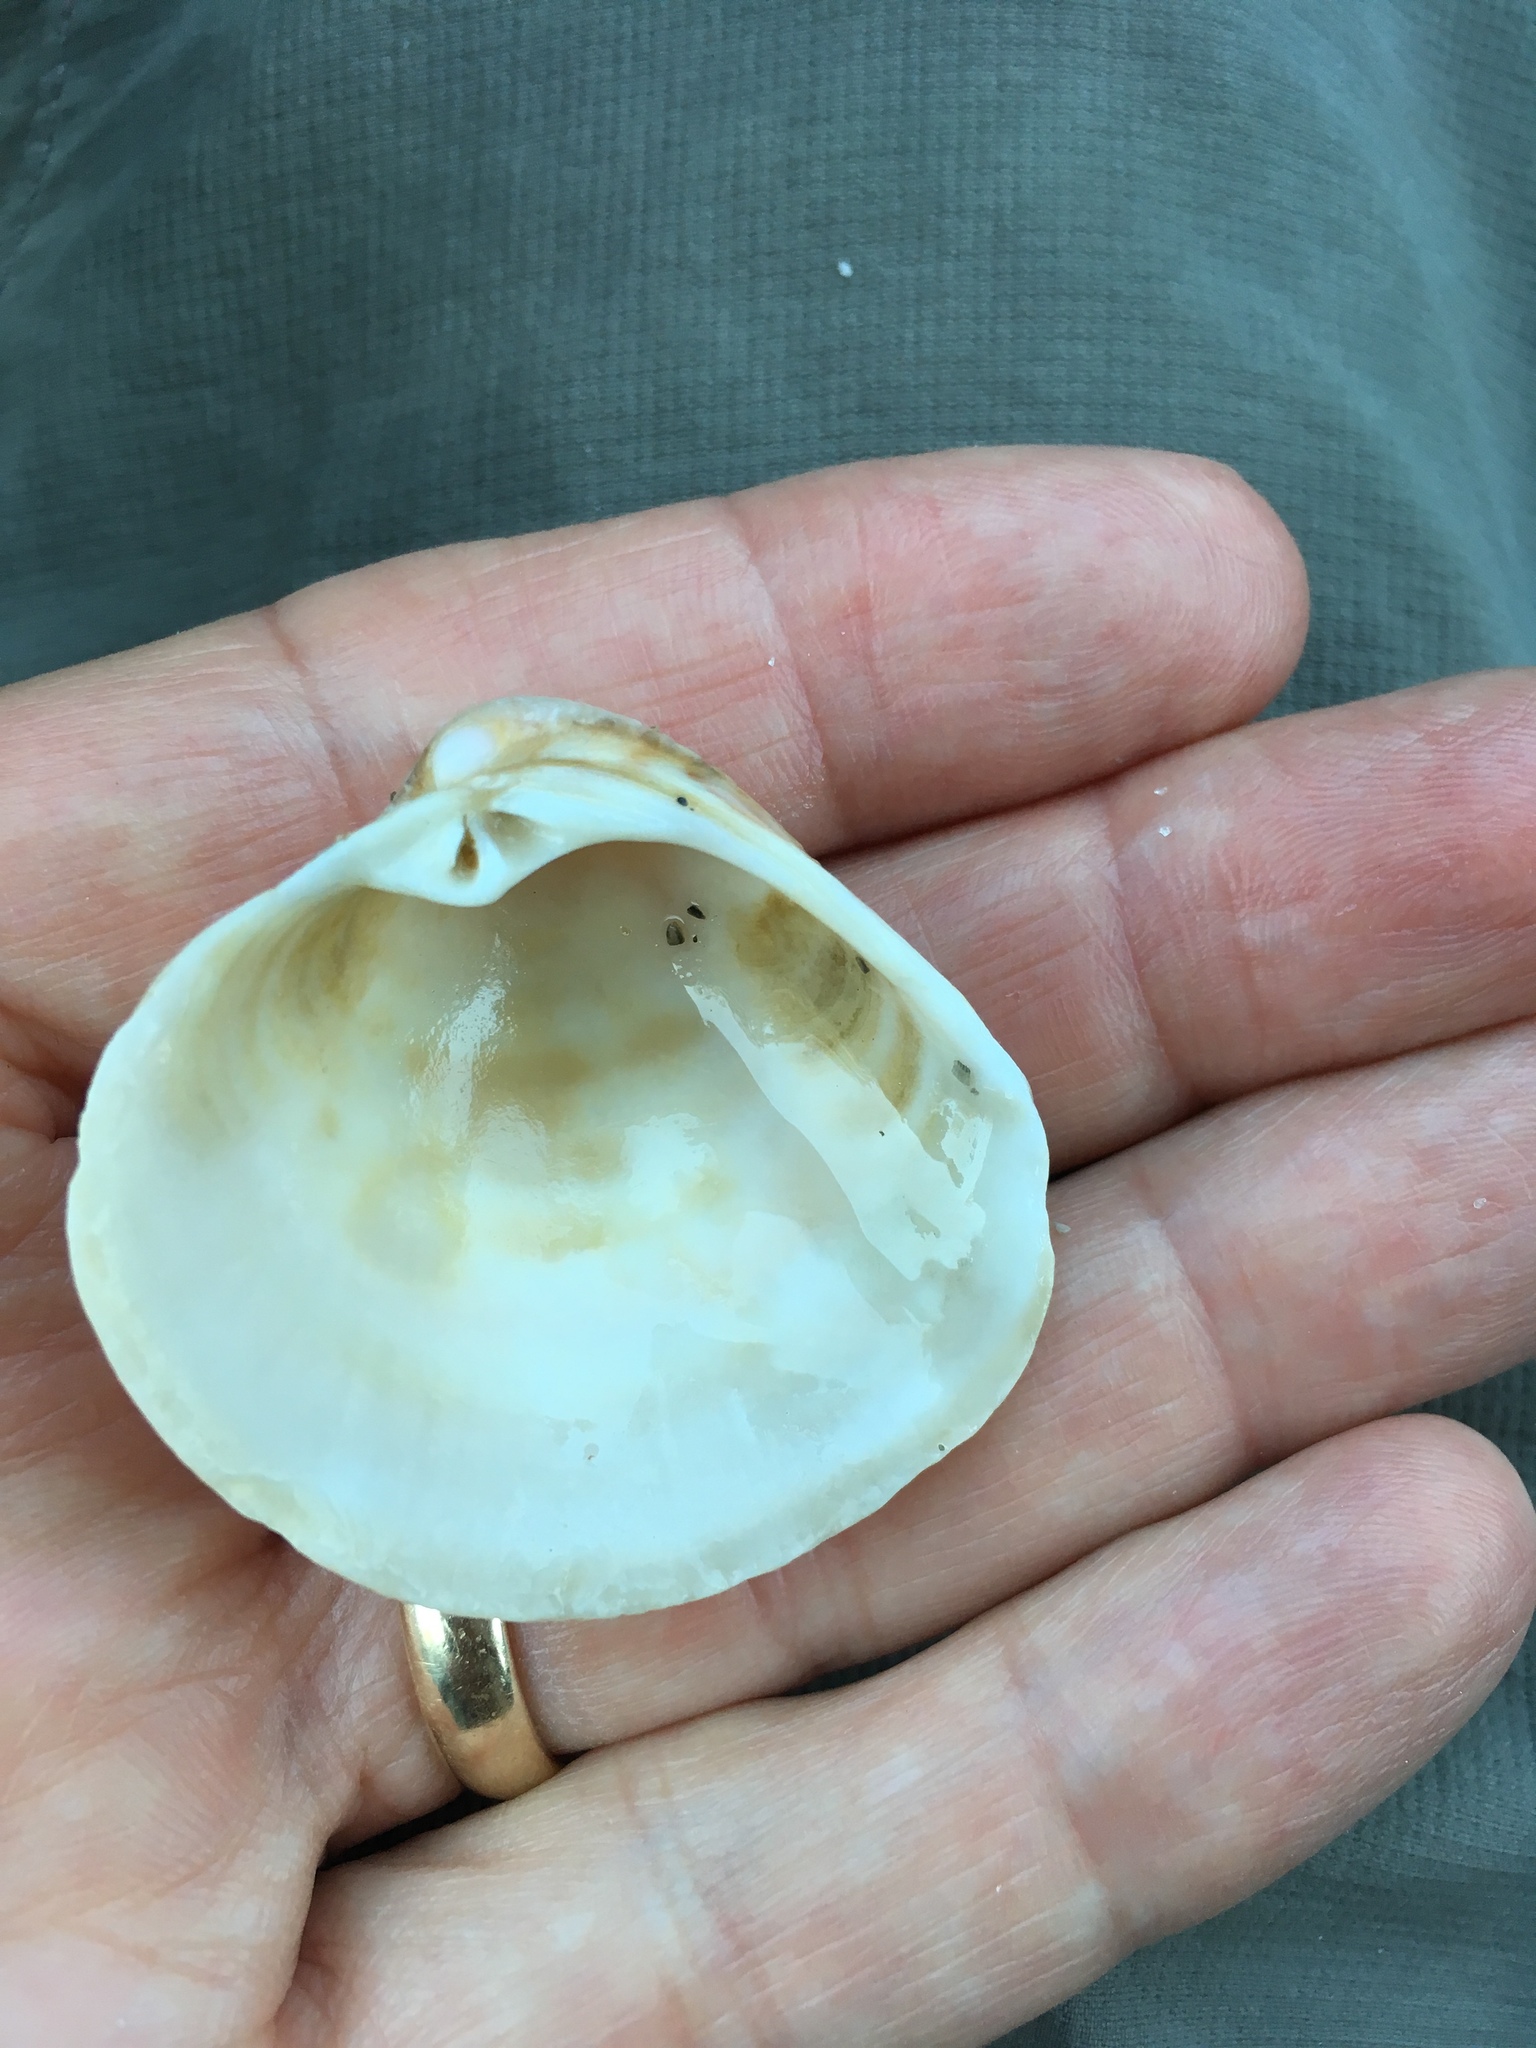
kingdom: Animalia
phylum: Mollusca
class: Bivalvia
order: Venerida
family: Veneridae
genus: Chionopsis
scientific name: Chionopsis intapurpurea
